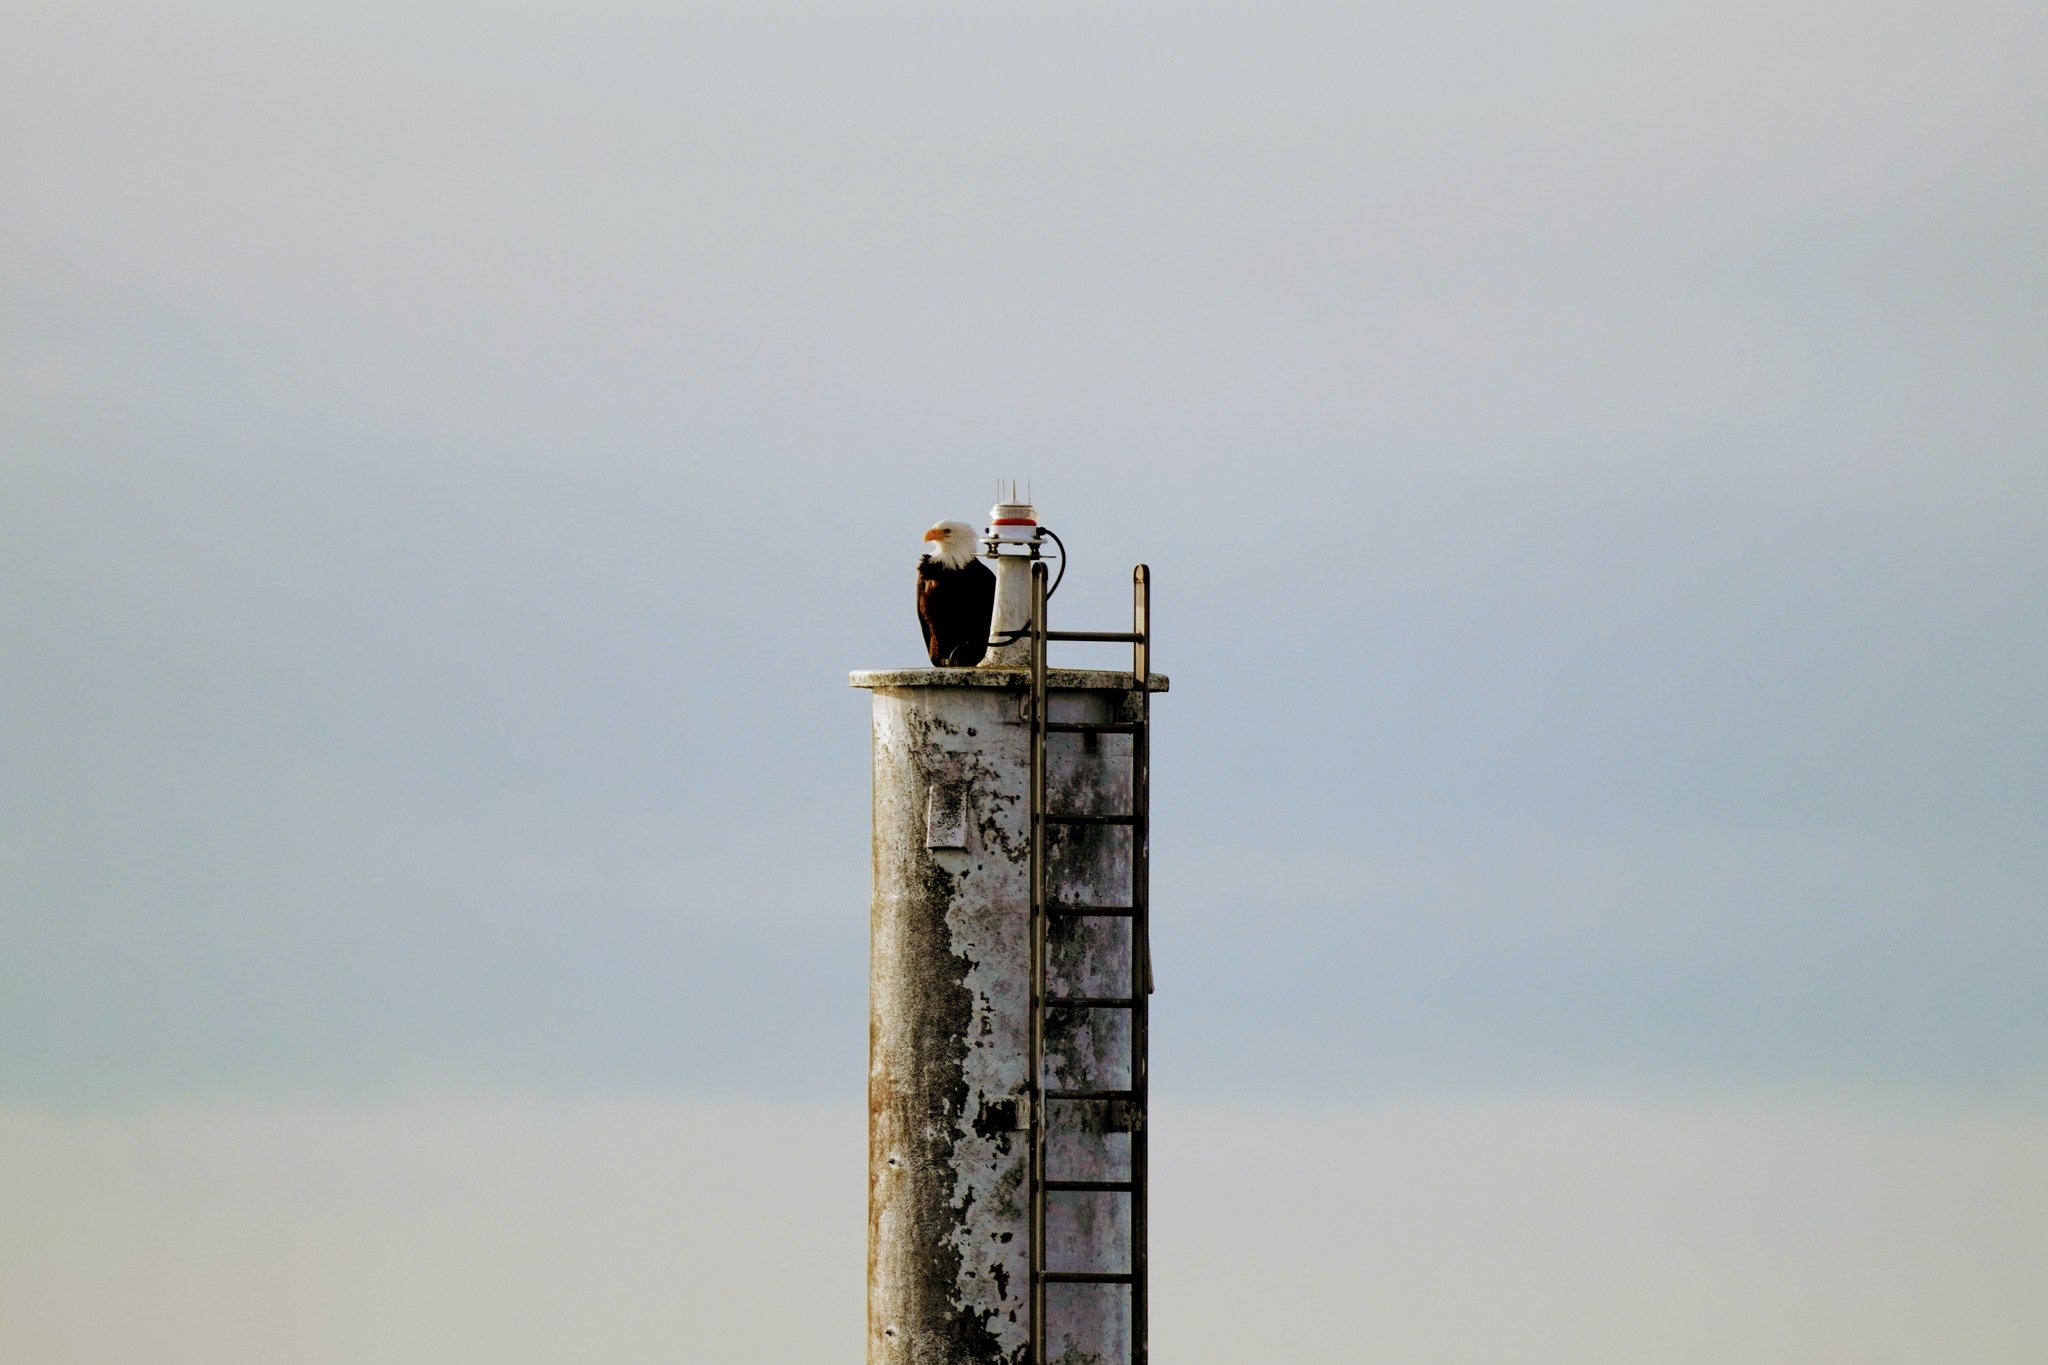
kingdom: Animalia
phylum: Chordata
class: Aves
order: Accipitriformes
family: Accipitridae
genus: Haliaeetus
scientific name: Haliaeetus leucocephalus
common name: Bald eagle
